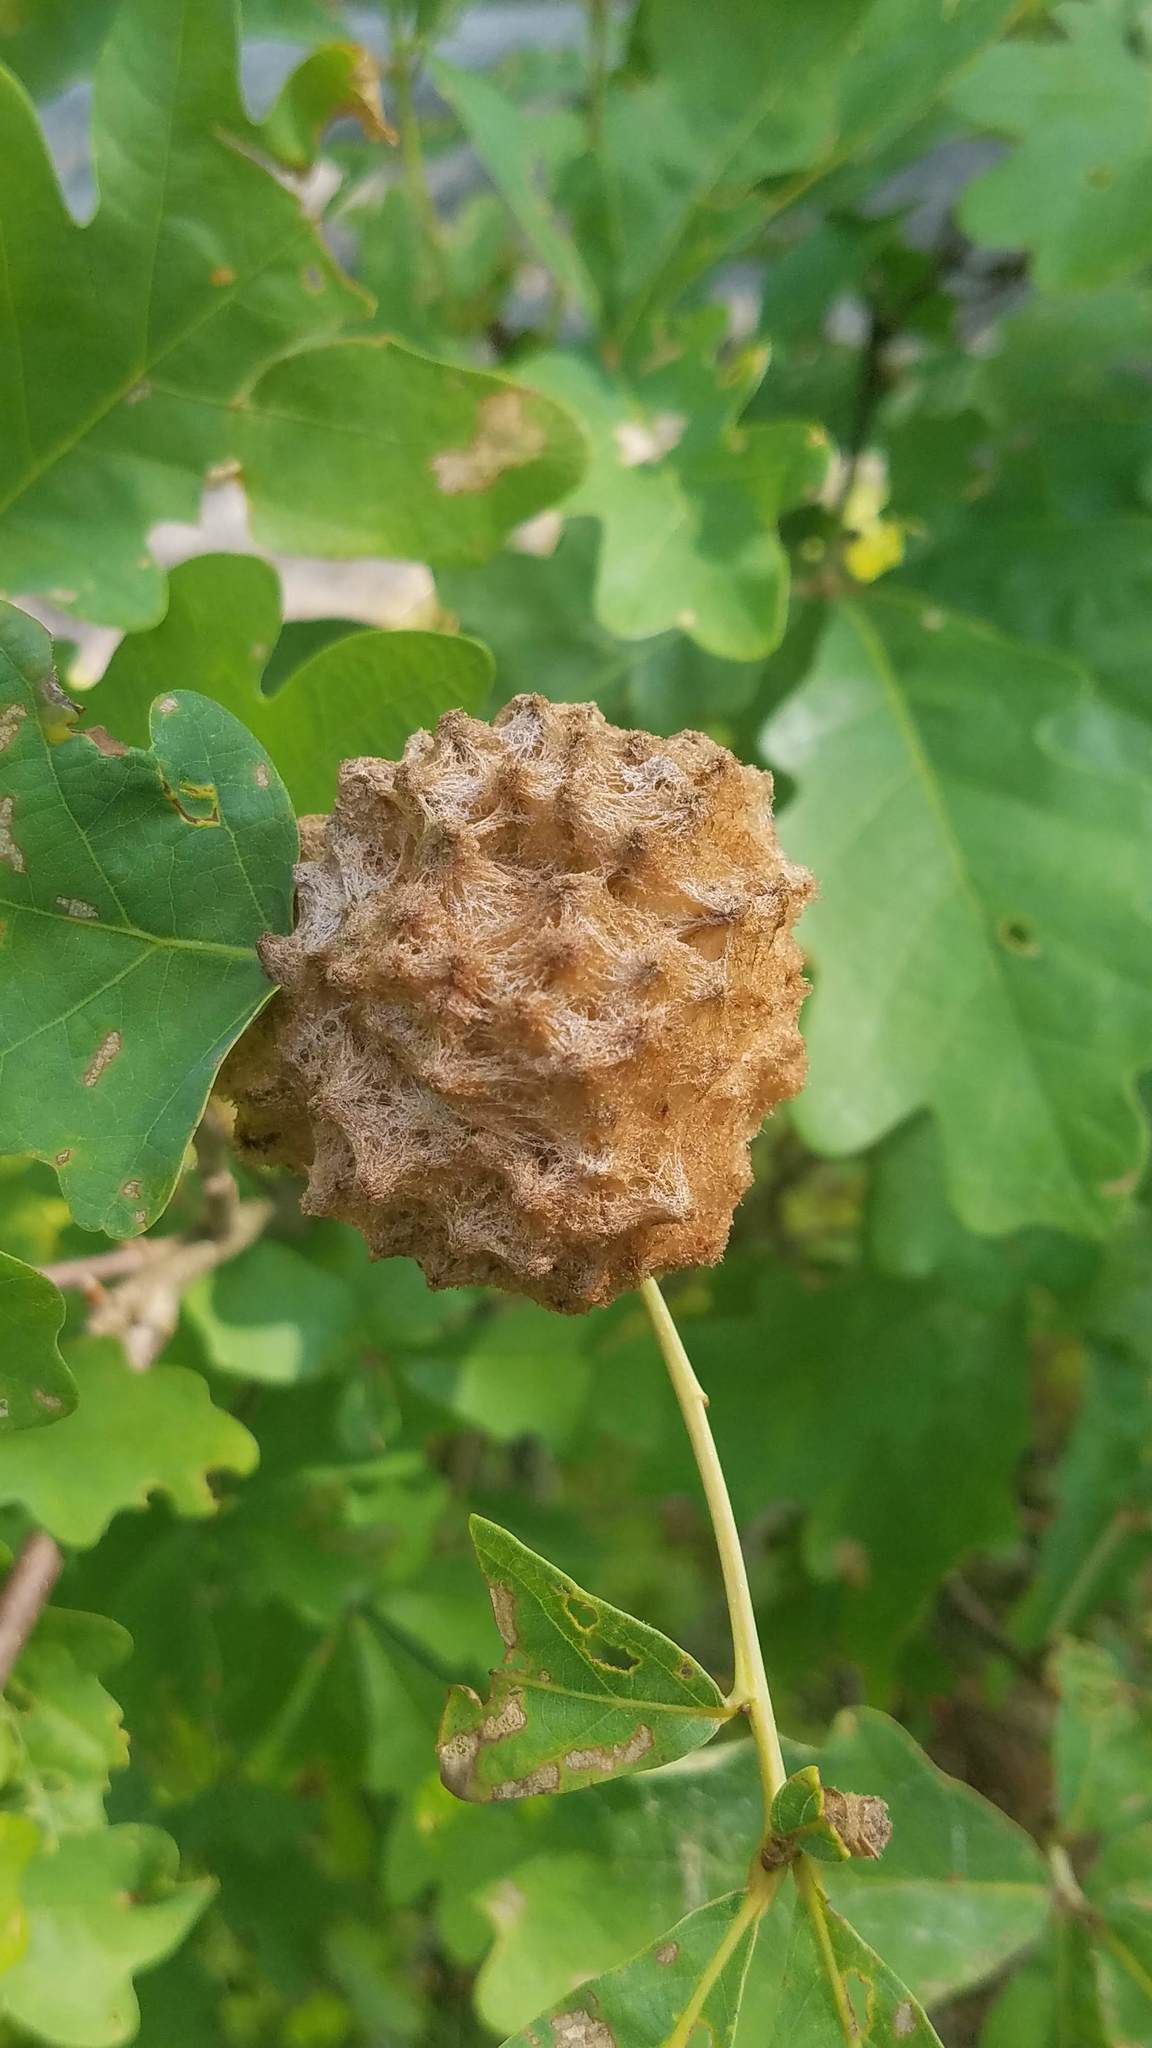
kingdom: Animalia
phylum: Arthropoda
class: Insecta
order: Hymenoptera
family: Cynipidae
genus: Callirhytis
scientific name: Callirhytis
